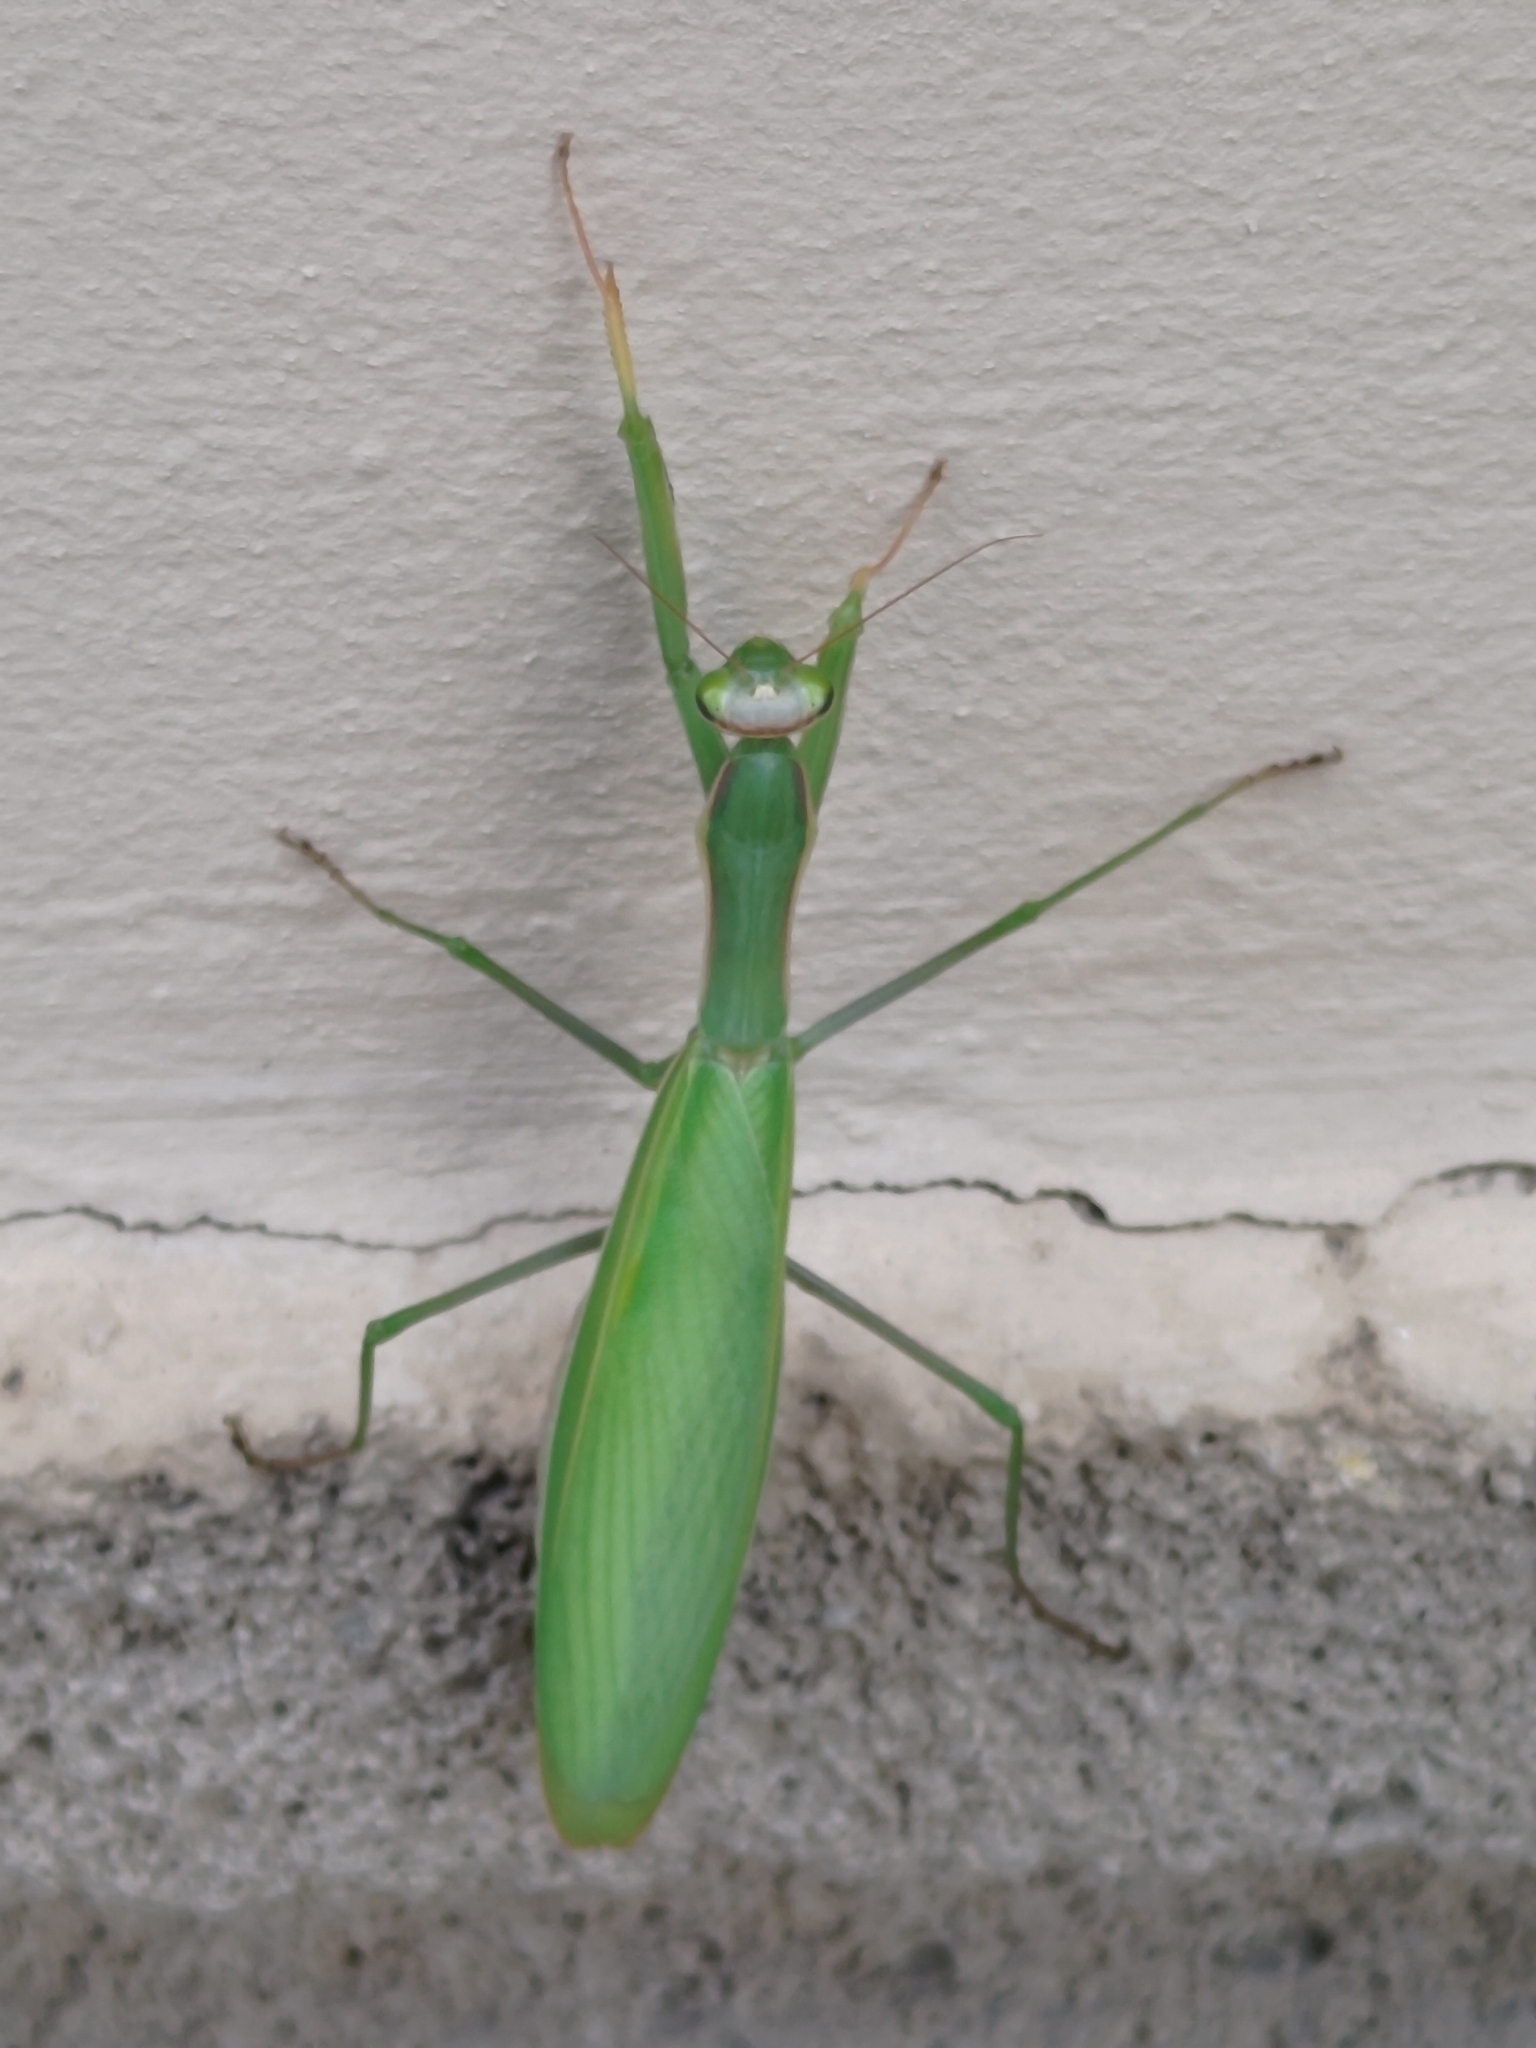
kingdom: Animalia
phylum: Arthropoda
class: Insecta
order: Mantodea
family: Mantidae
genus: Mantis
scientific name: Mantis religiosa
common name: Praying mantis
